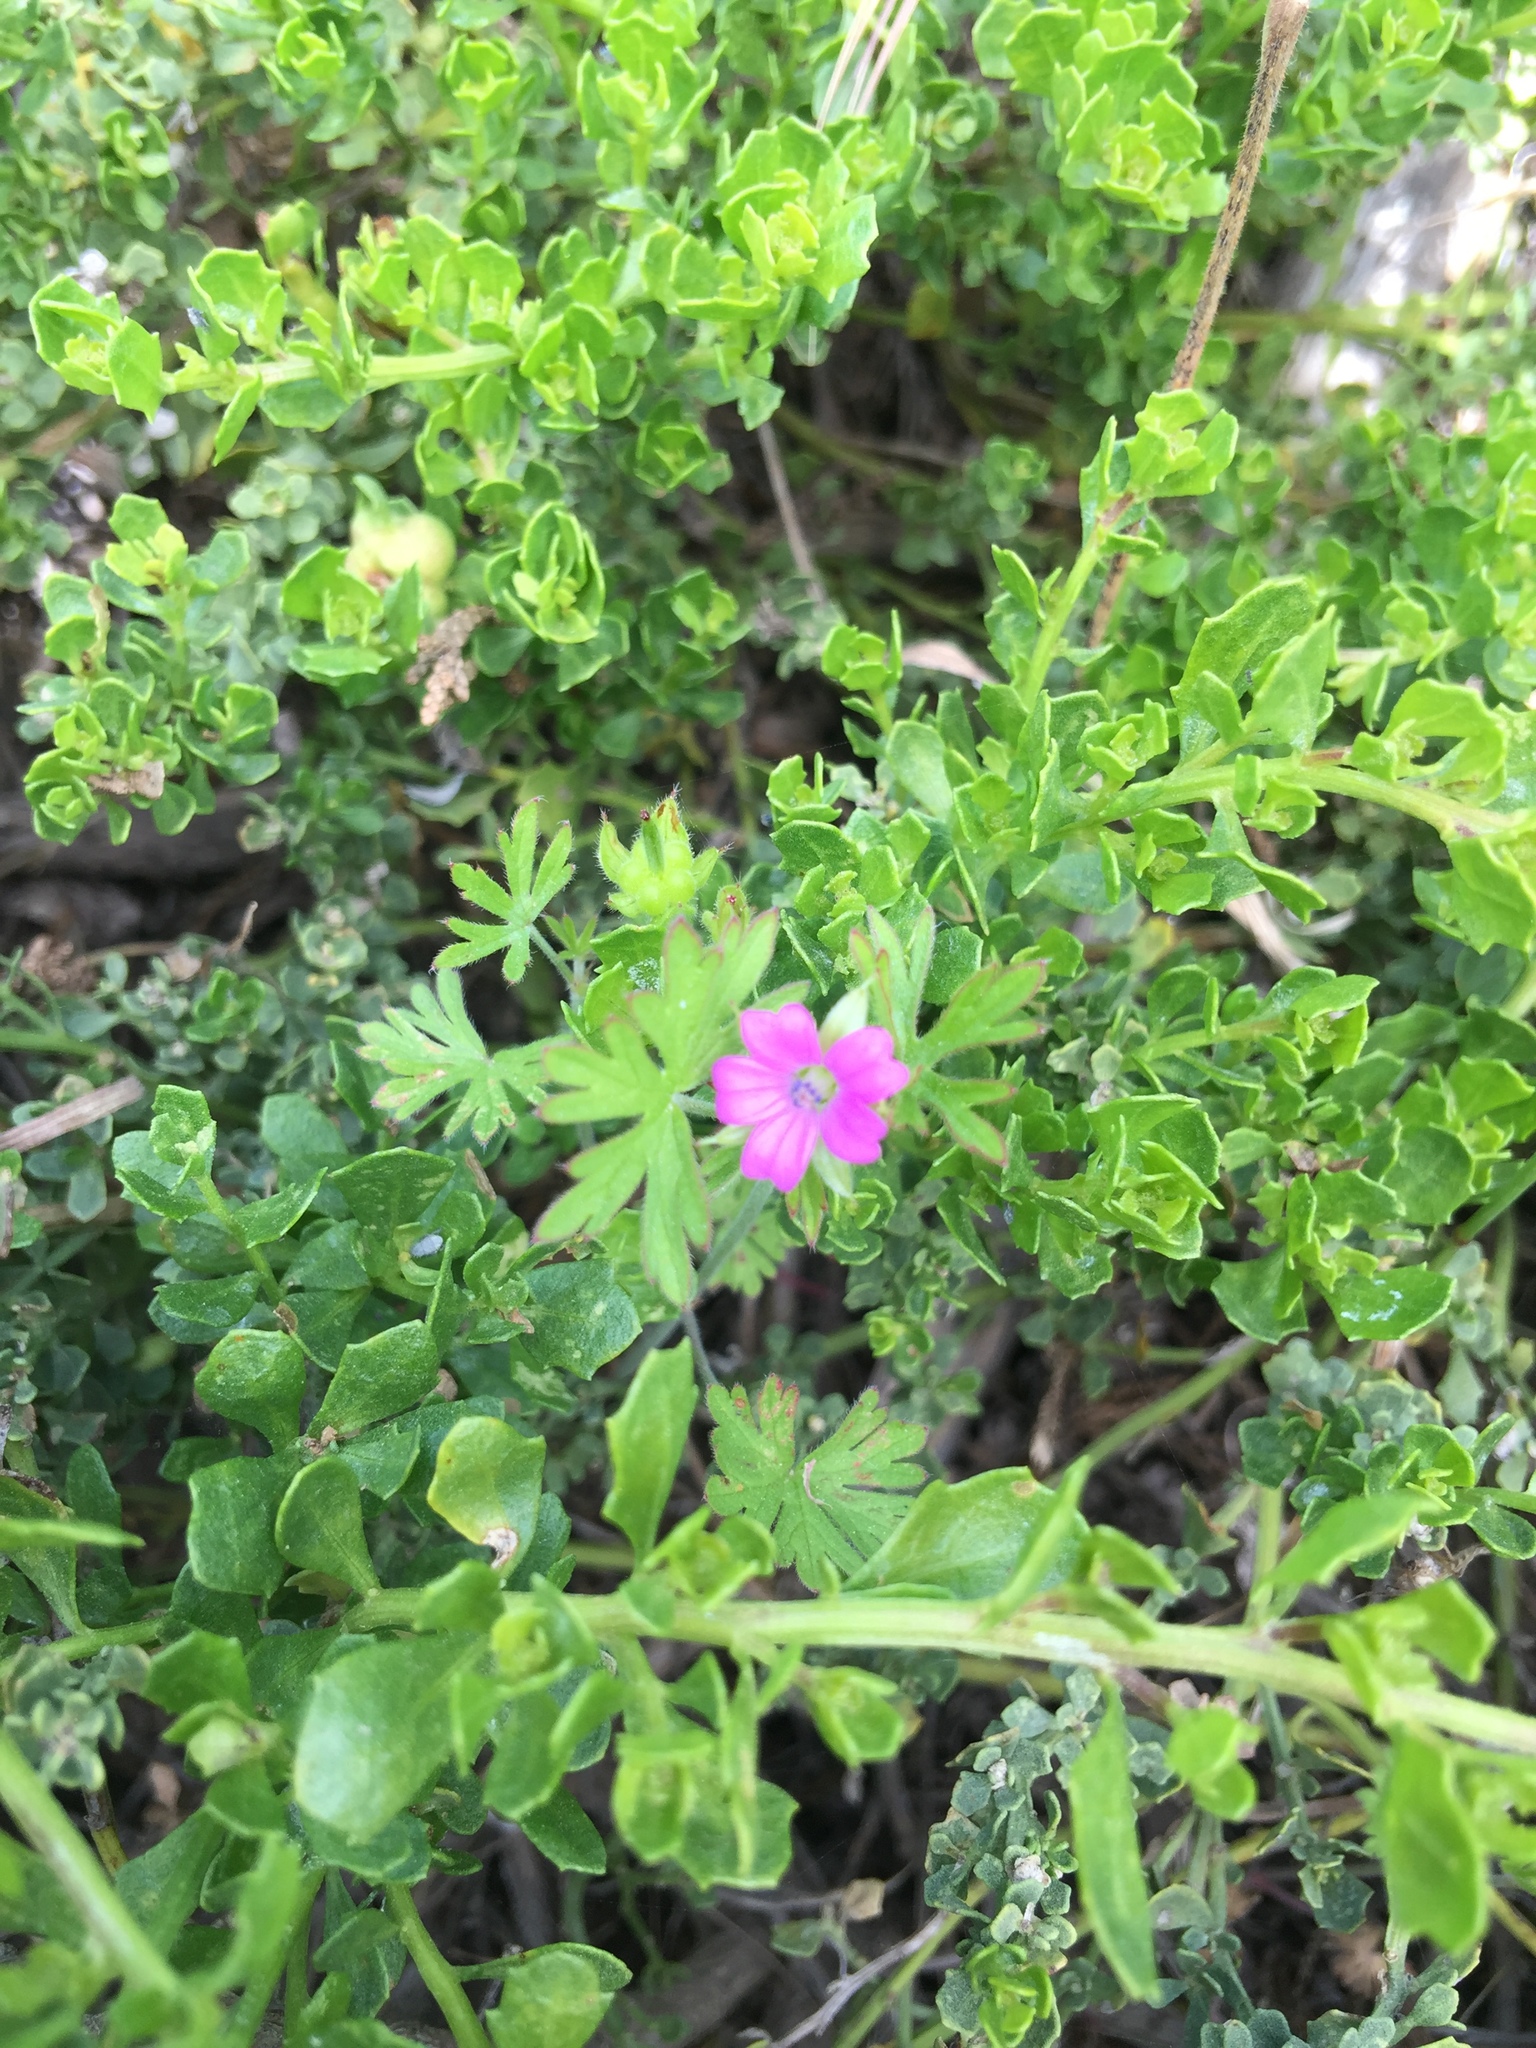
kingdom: Plantae
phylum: Tracheophyta
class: Magnoliopsida
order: Geraniales
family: Geraniaceae
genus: Geranium
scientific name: Geranium dissectum
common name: Cut-leaved crane's-bill
